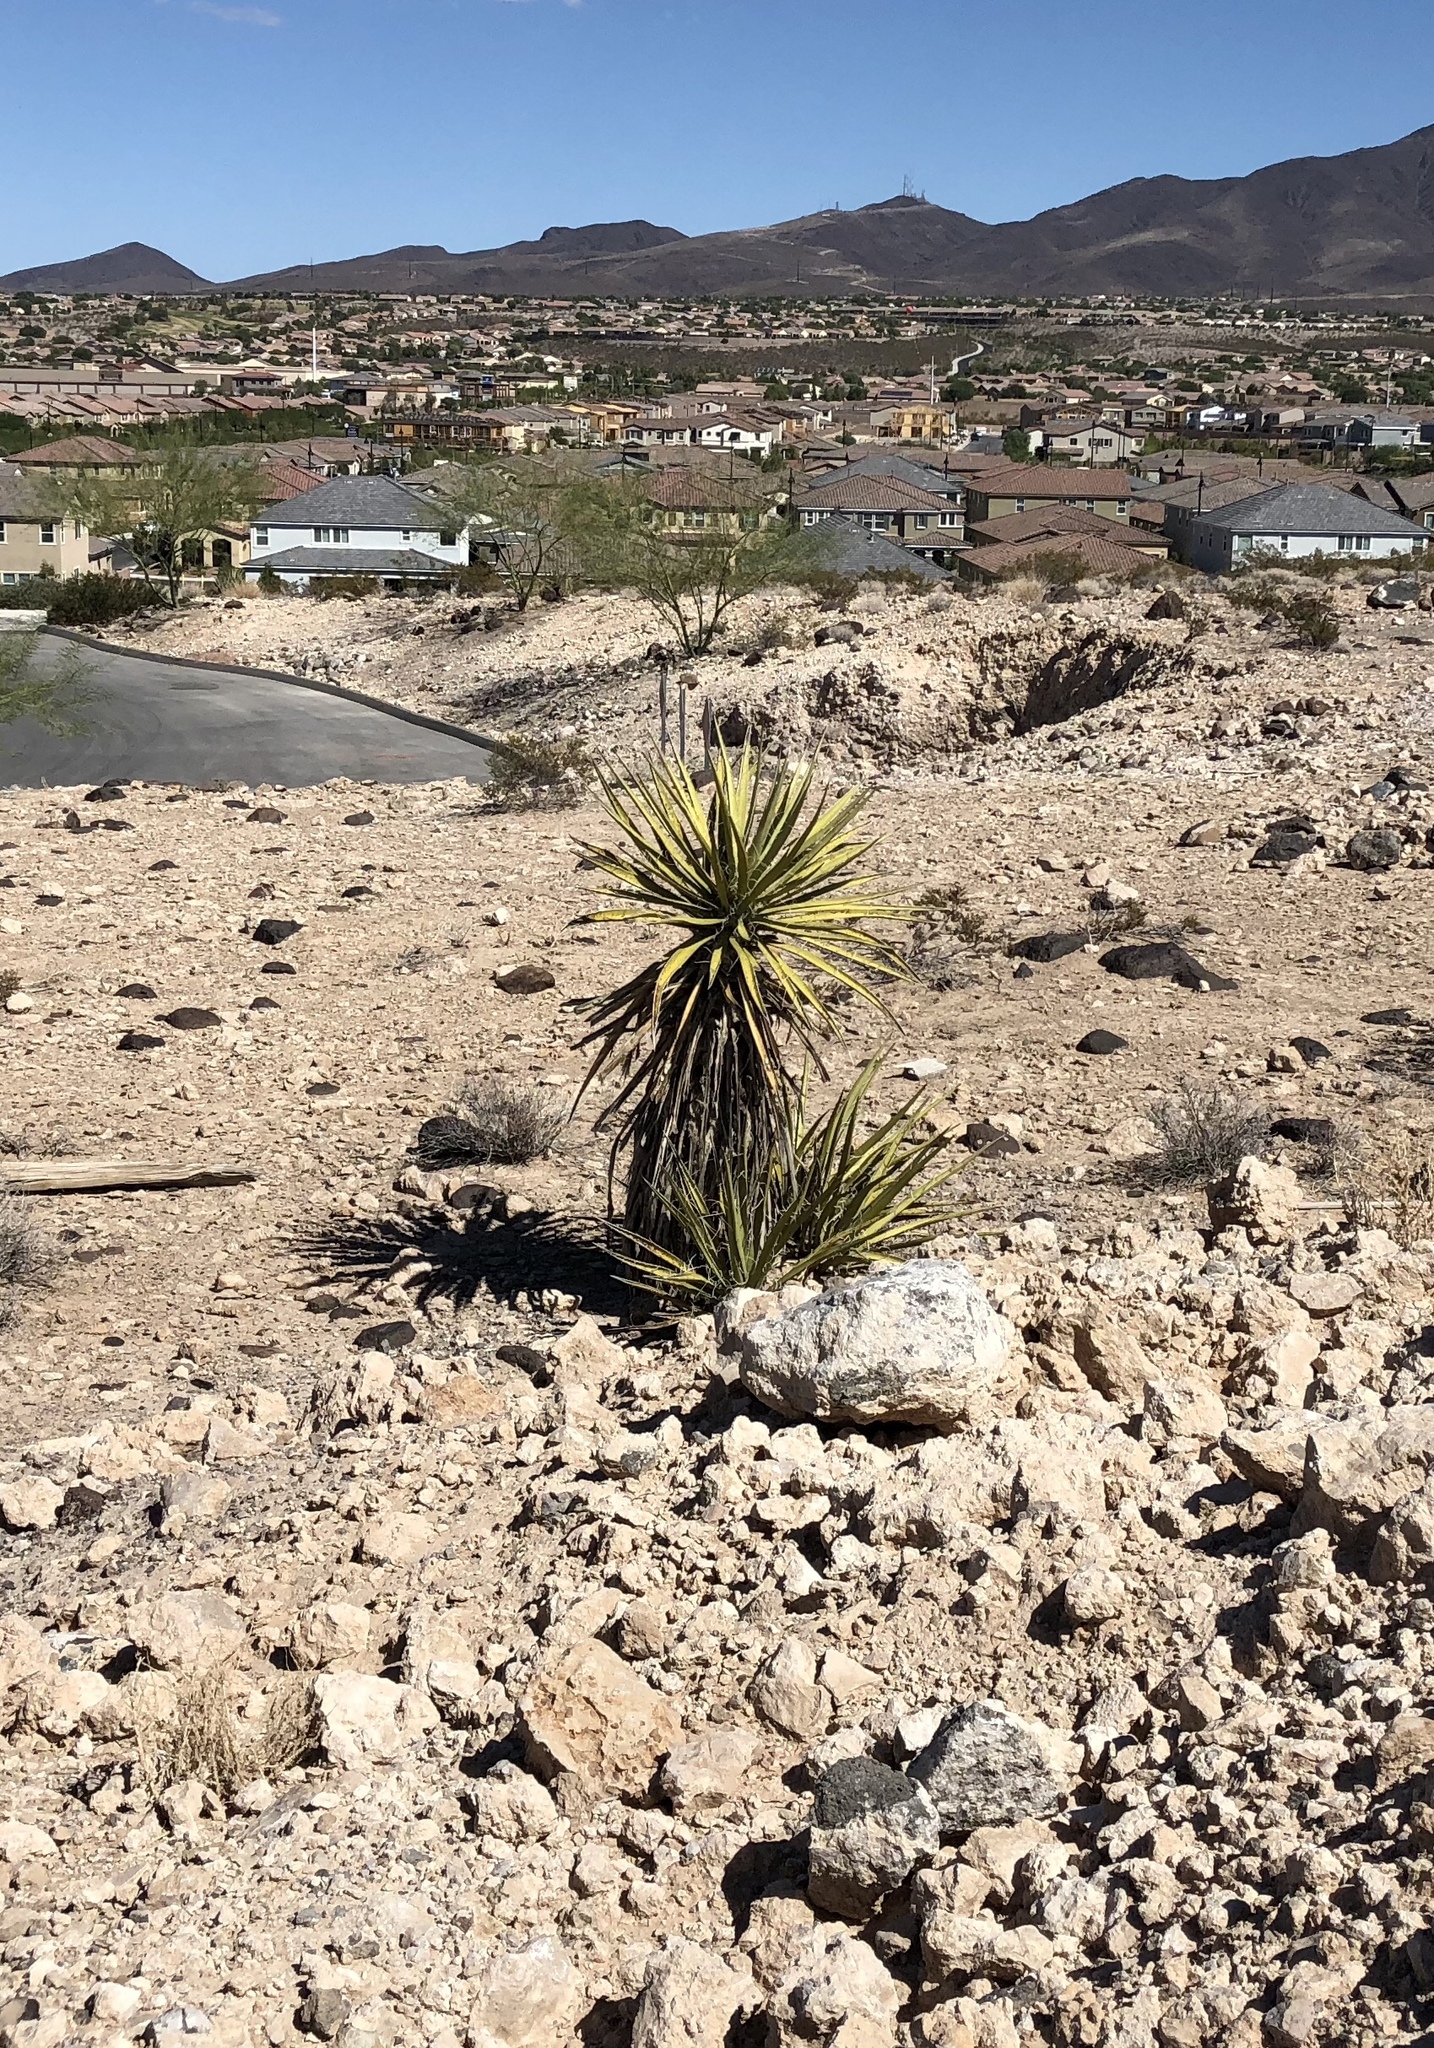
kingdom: Plantae
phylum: Tracheophyta
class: Liliopsida
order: Asparagales
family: Asparagaceae
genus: Yucca
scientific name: Yucca schidigera
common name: Mojave yucca
